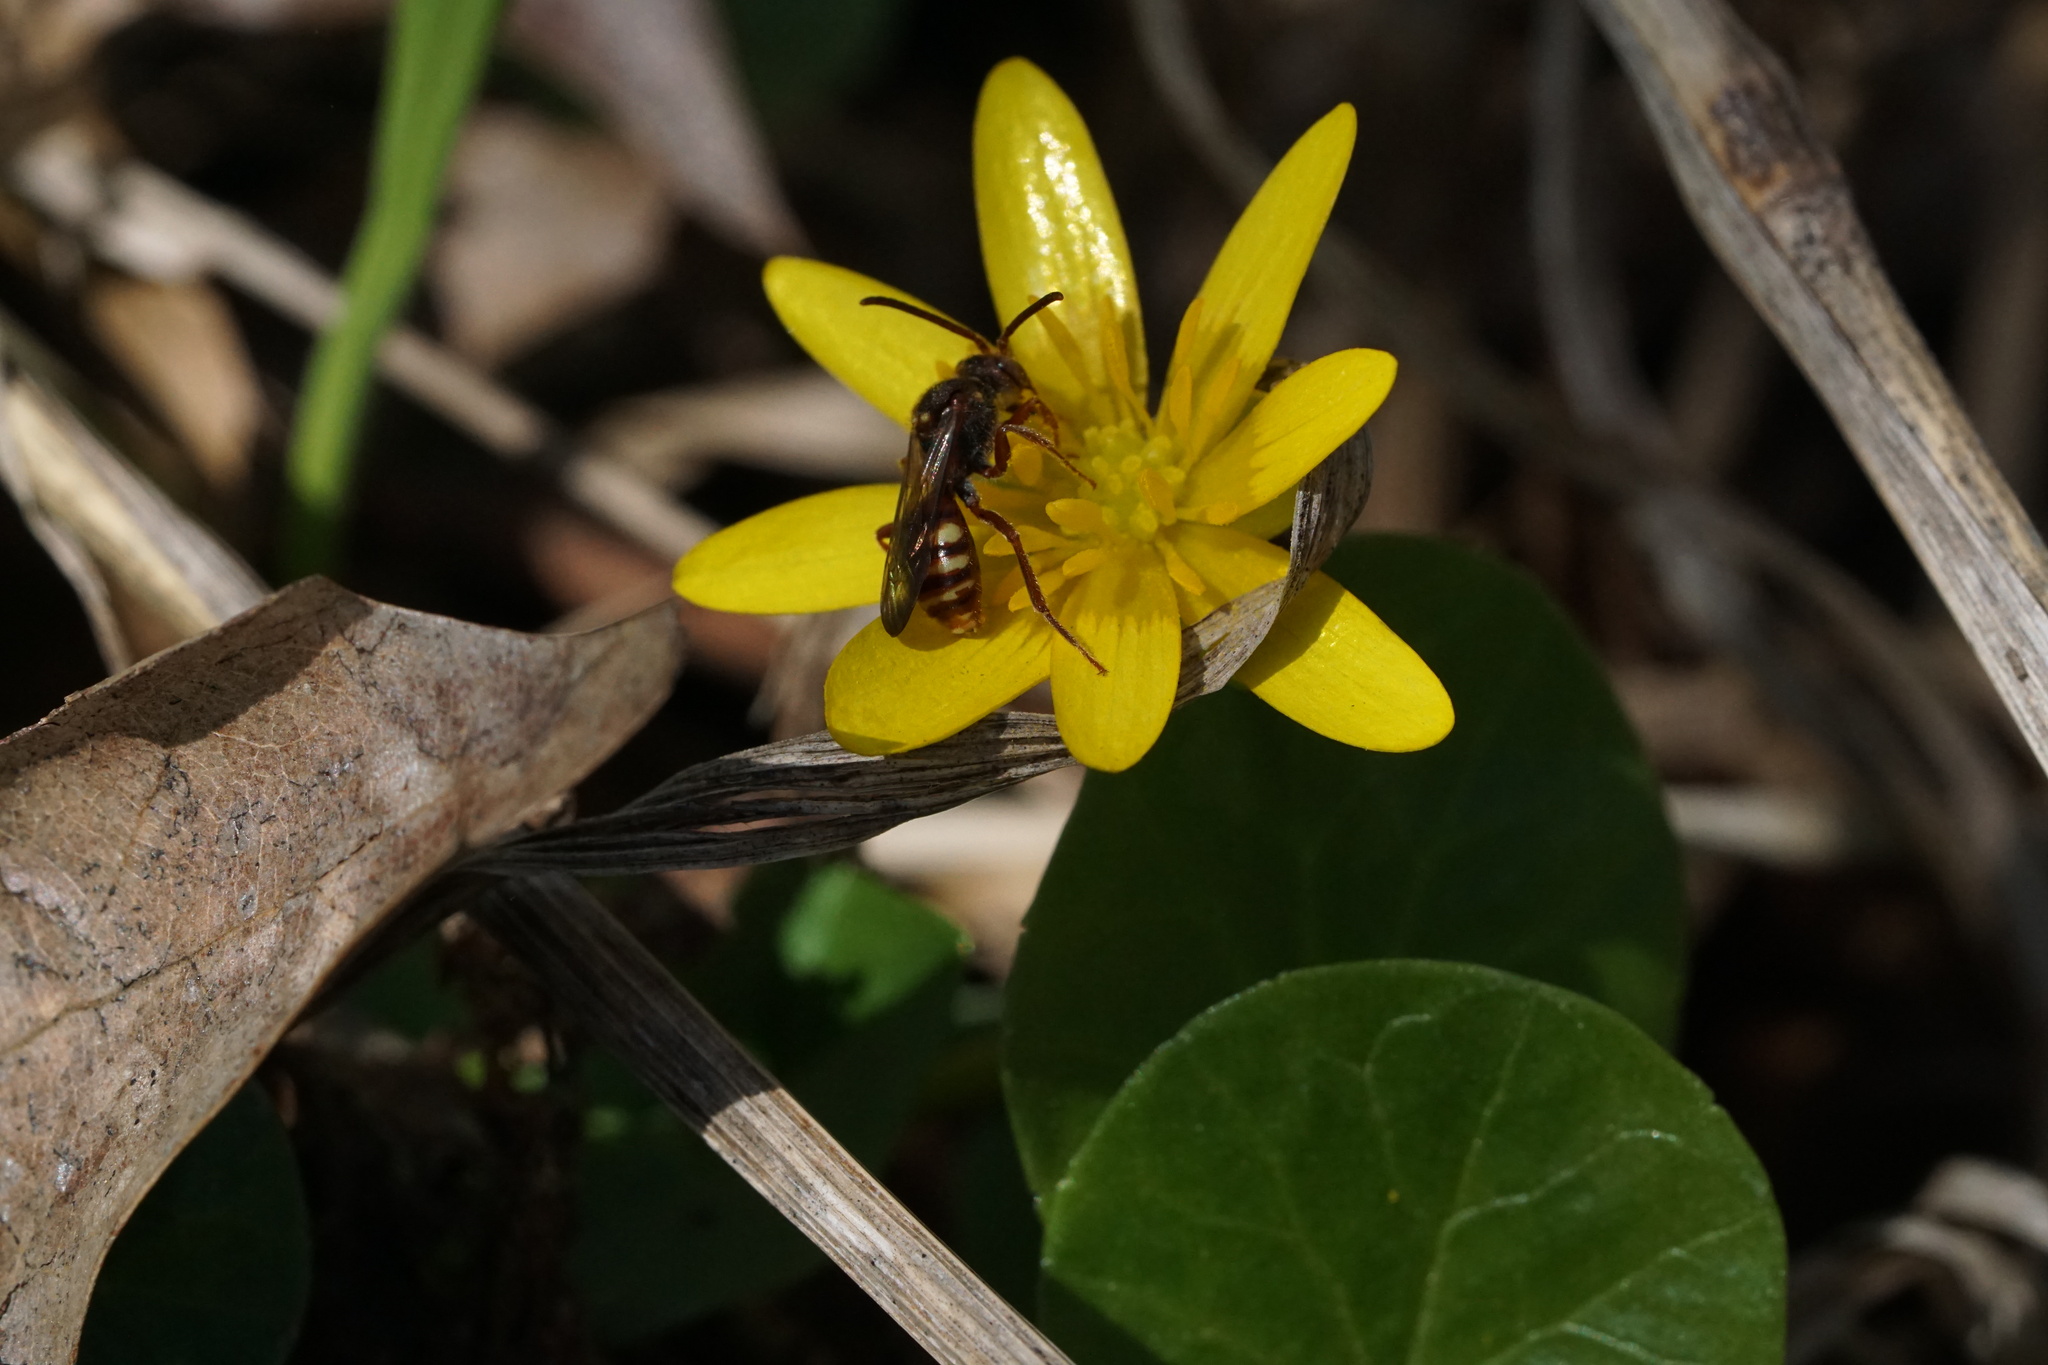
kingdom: Animalia
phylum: Arthropoda
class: Insecta
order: Hymenoptera
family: Apidae
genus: Nomada
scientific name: Nomada imbricata
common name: Imbricate cuckoo nomad bee
